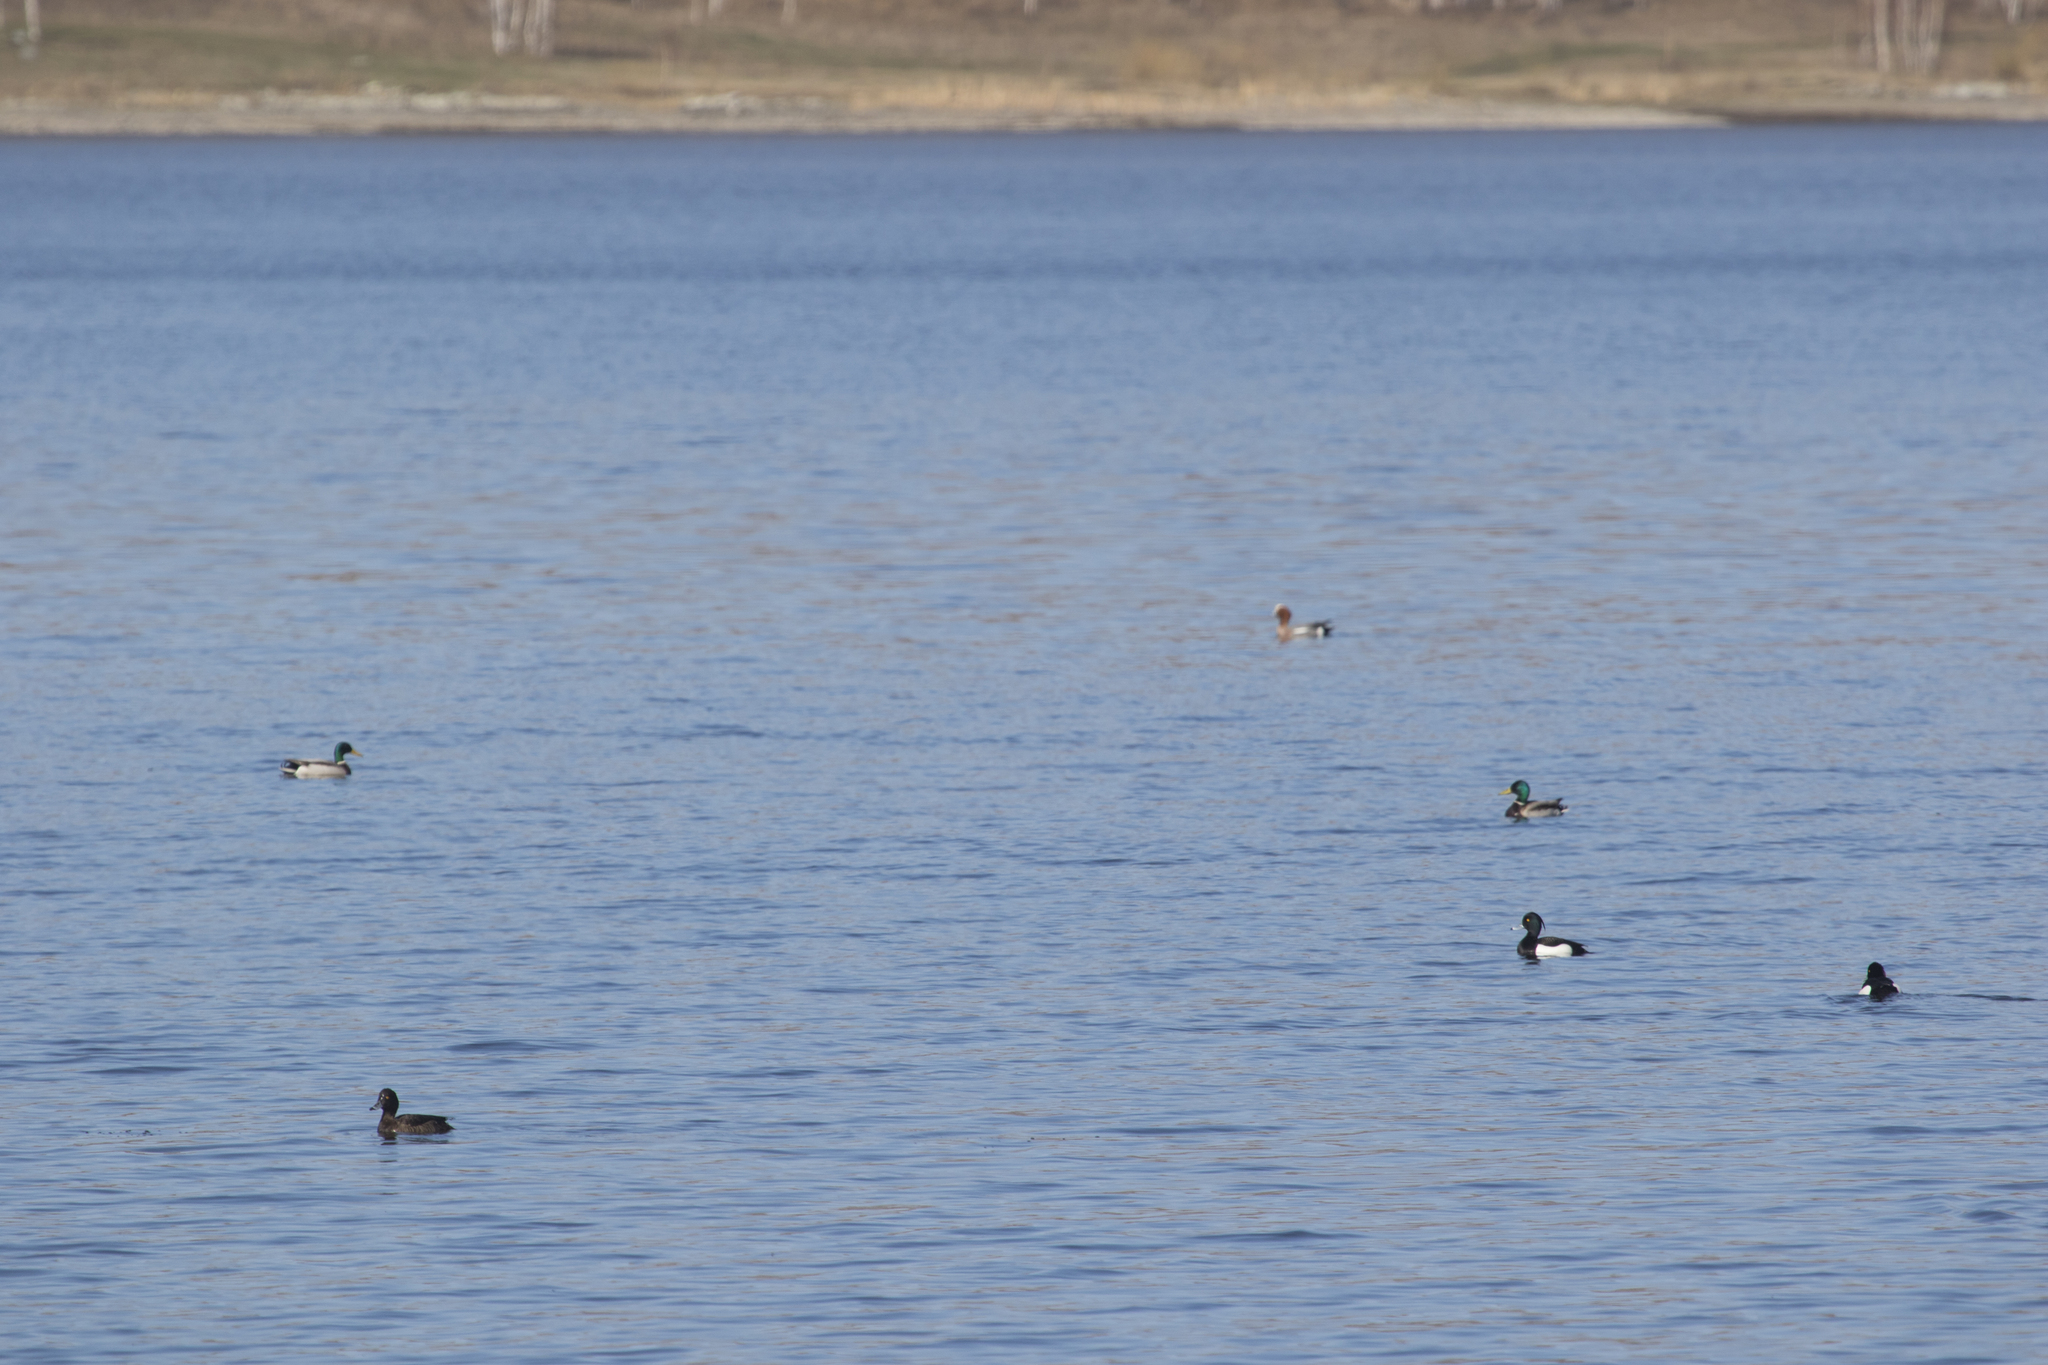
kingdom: Animalia
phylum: Chordata
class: Aves
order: Anseriformes
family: Anatidae
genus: Aythya
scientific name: Aythya fuligula
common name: Tufted duck
